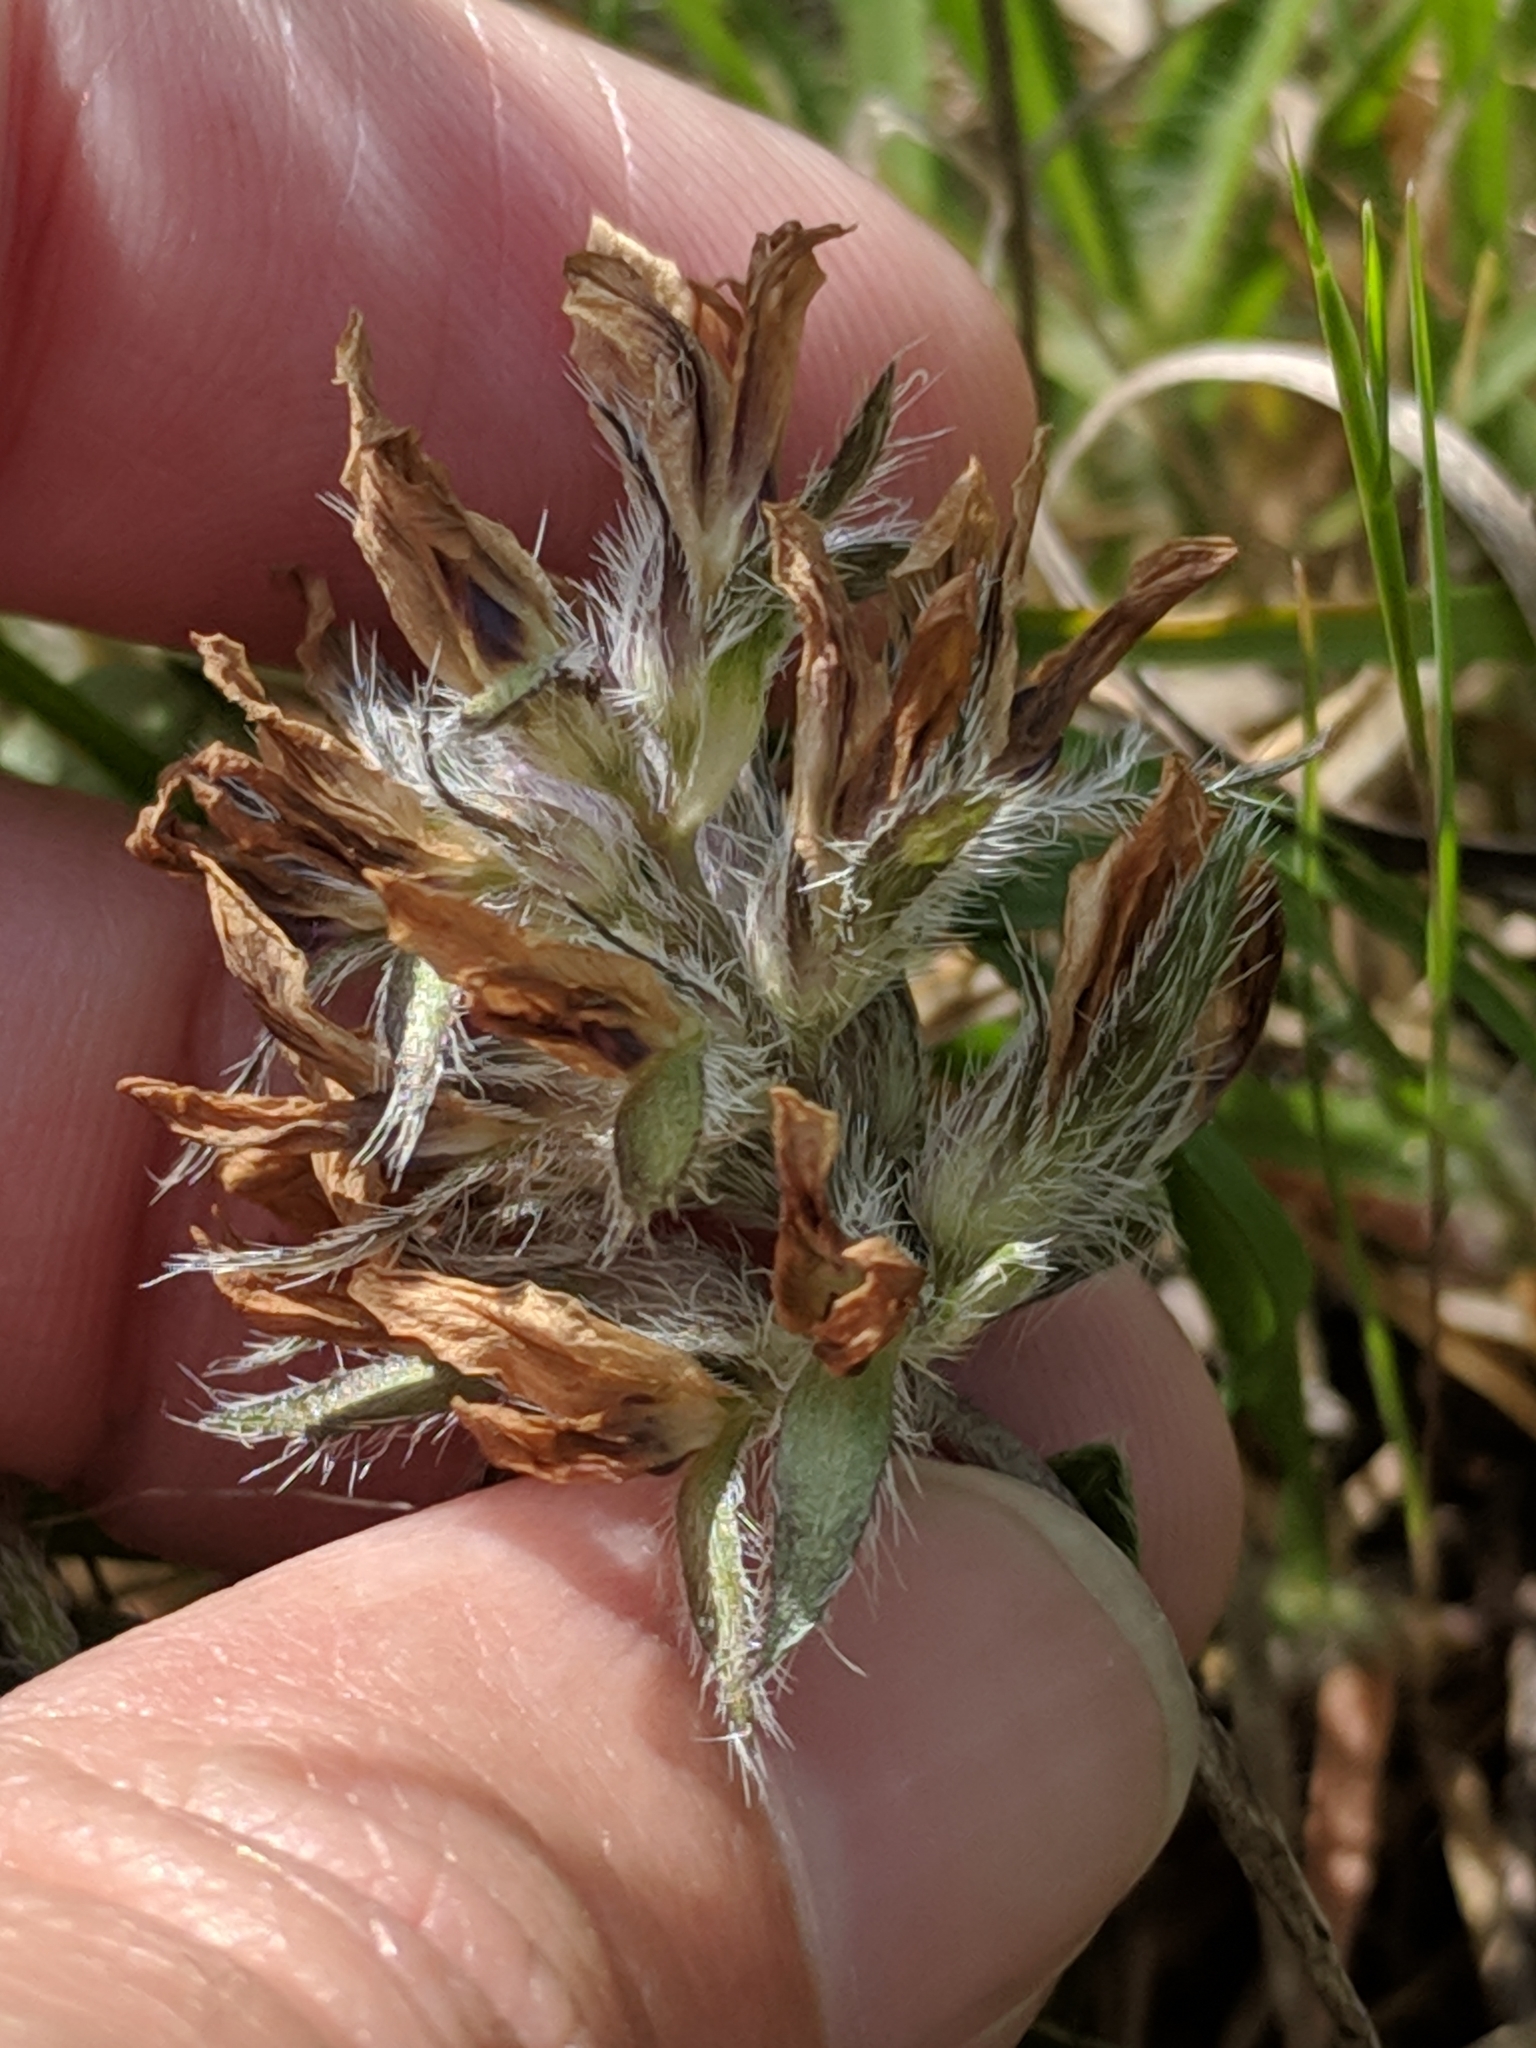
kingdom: Plantae
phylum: Tracheophyta
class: Magnoliopsida
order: Fabales
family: Fabaceae
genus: Pediomelum
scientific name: Pediomelum hypogaeum
